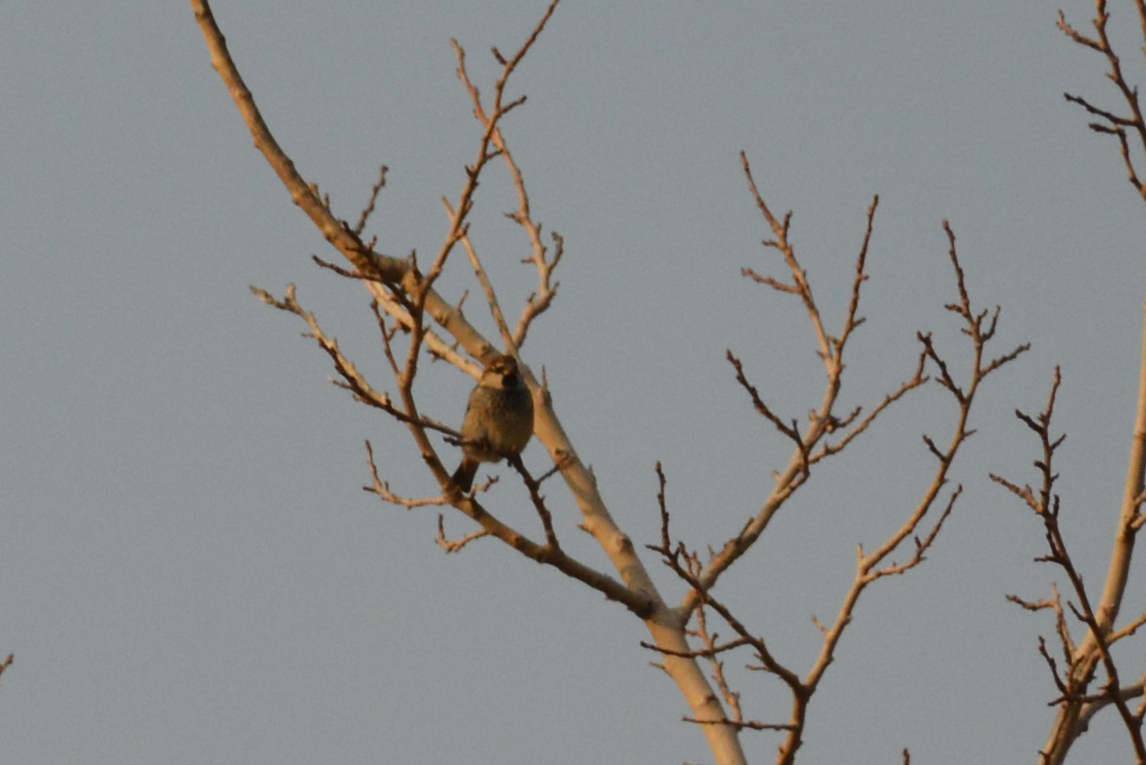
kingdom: Animalia
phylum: Chordata
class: Aves
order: Passeriformes
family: Passeridae
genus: Passer
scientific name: Passer hispaniolensis
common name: Spanish sparrow
